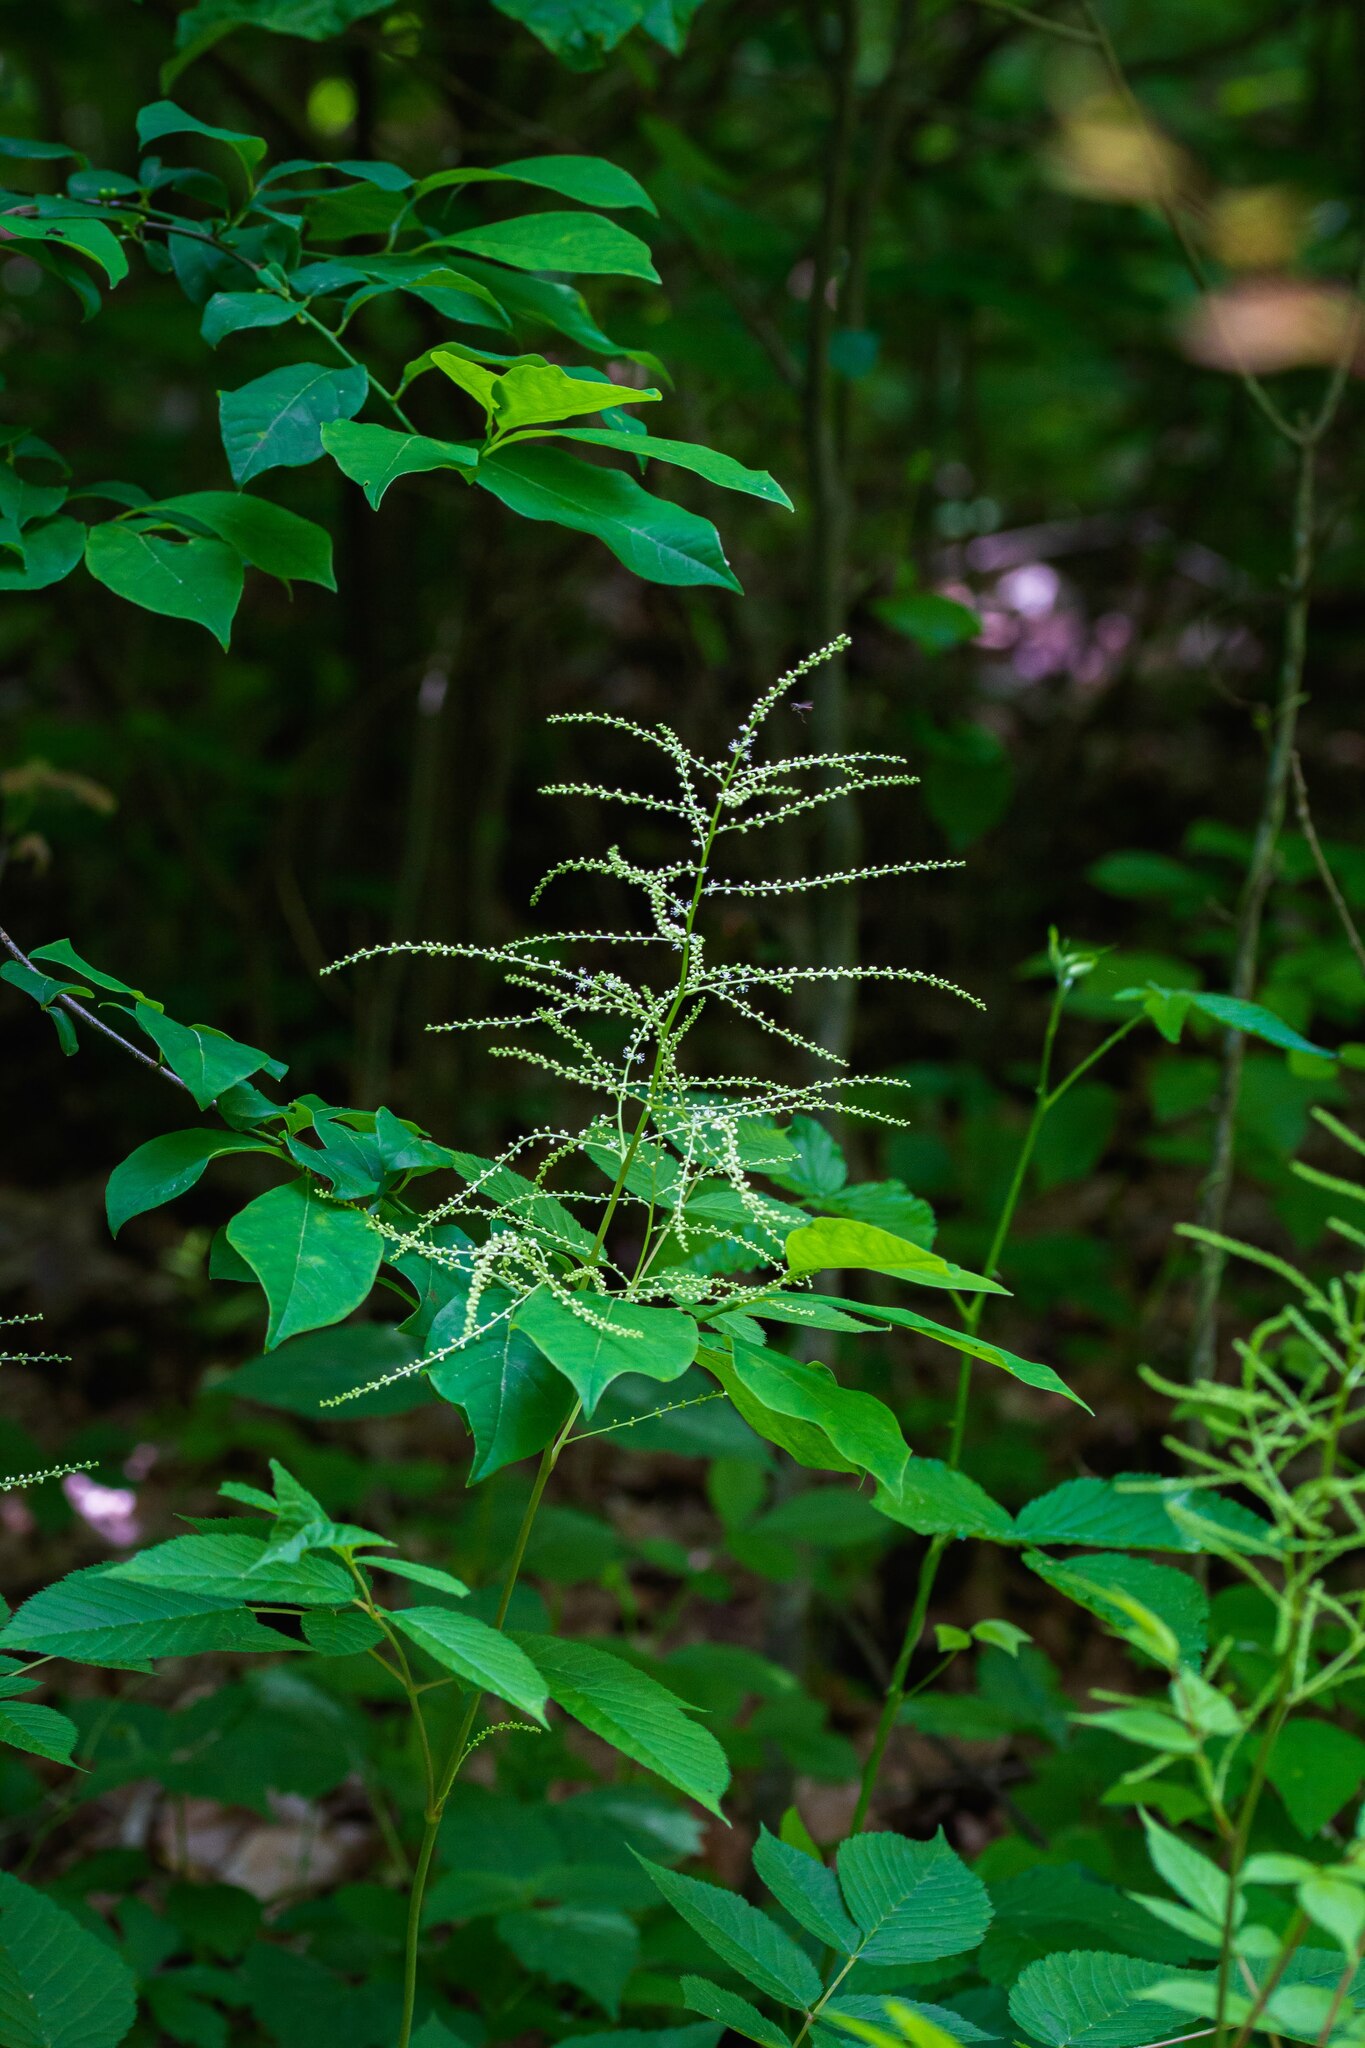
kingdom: Plantae
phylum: Tracheophyta
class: Magnoliopsida
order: Rosales
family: Rosaceae
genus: Aruncus
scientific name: Aruncus dioicus
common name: Buck's-beard
